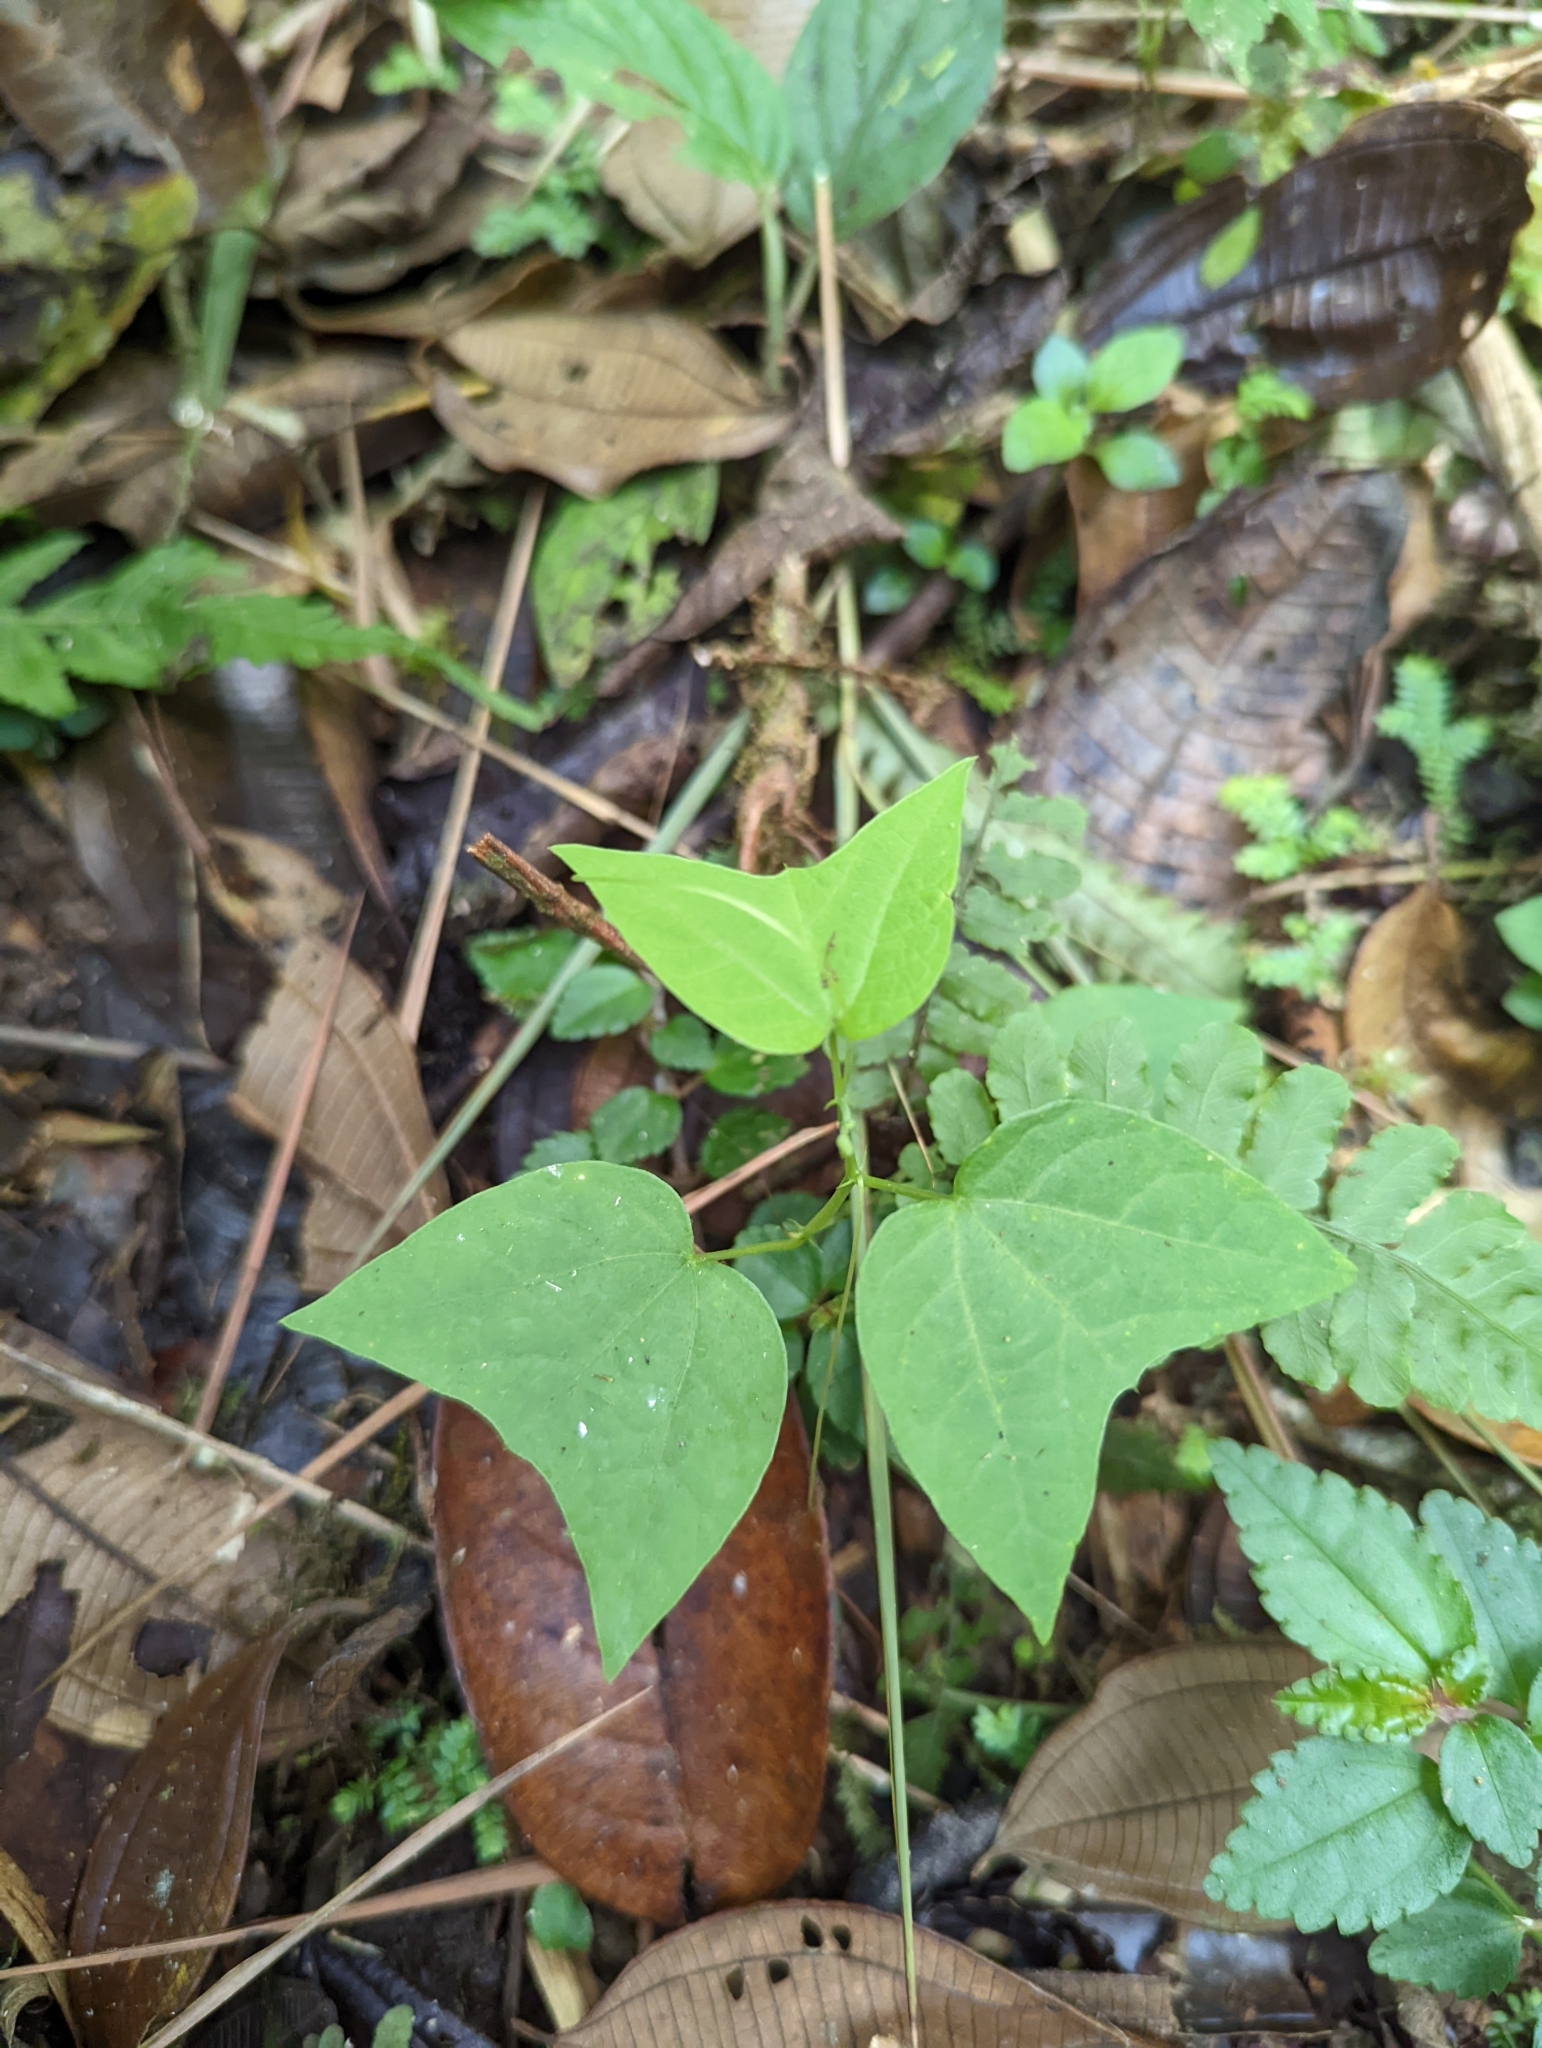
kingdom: Plantae
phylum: Tracheophyta
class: Magnoliopsida
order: Malpighiales
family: Passifloraceae
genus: Passiflora
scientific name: Passiflora sexflora
